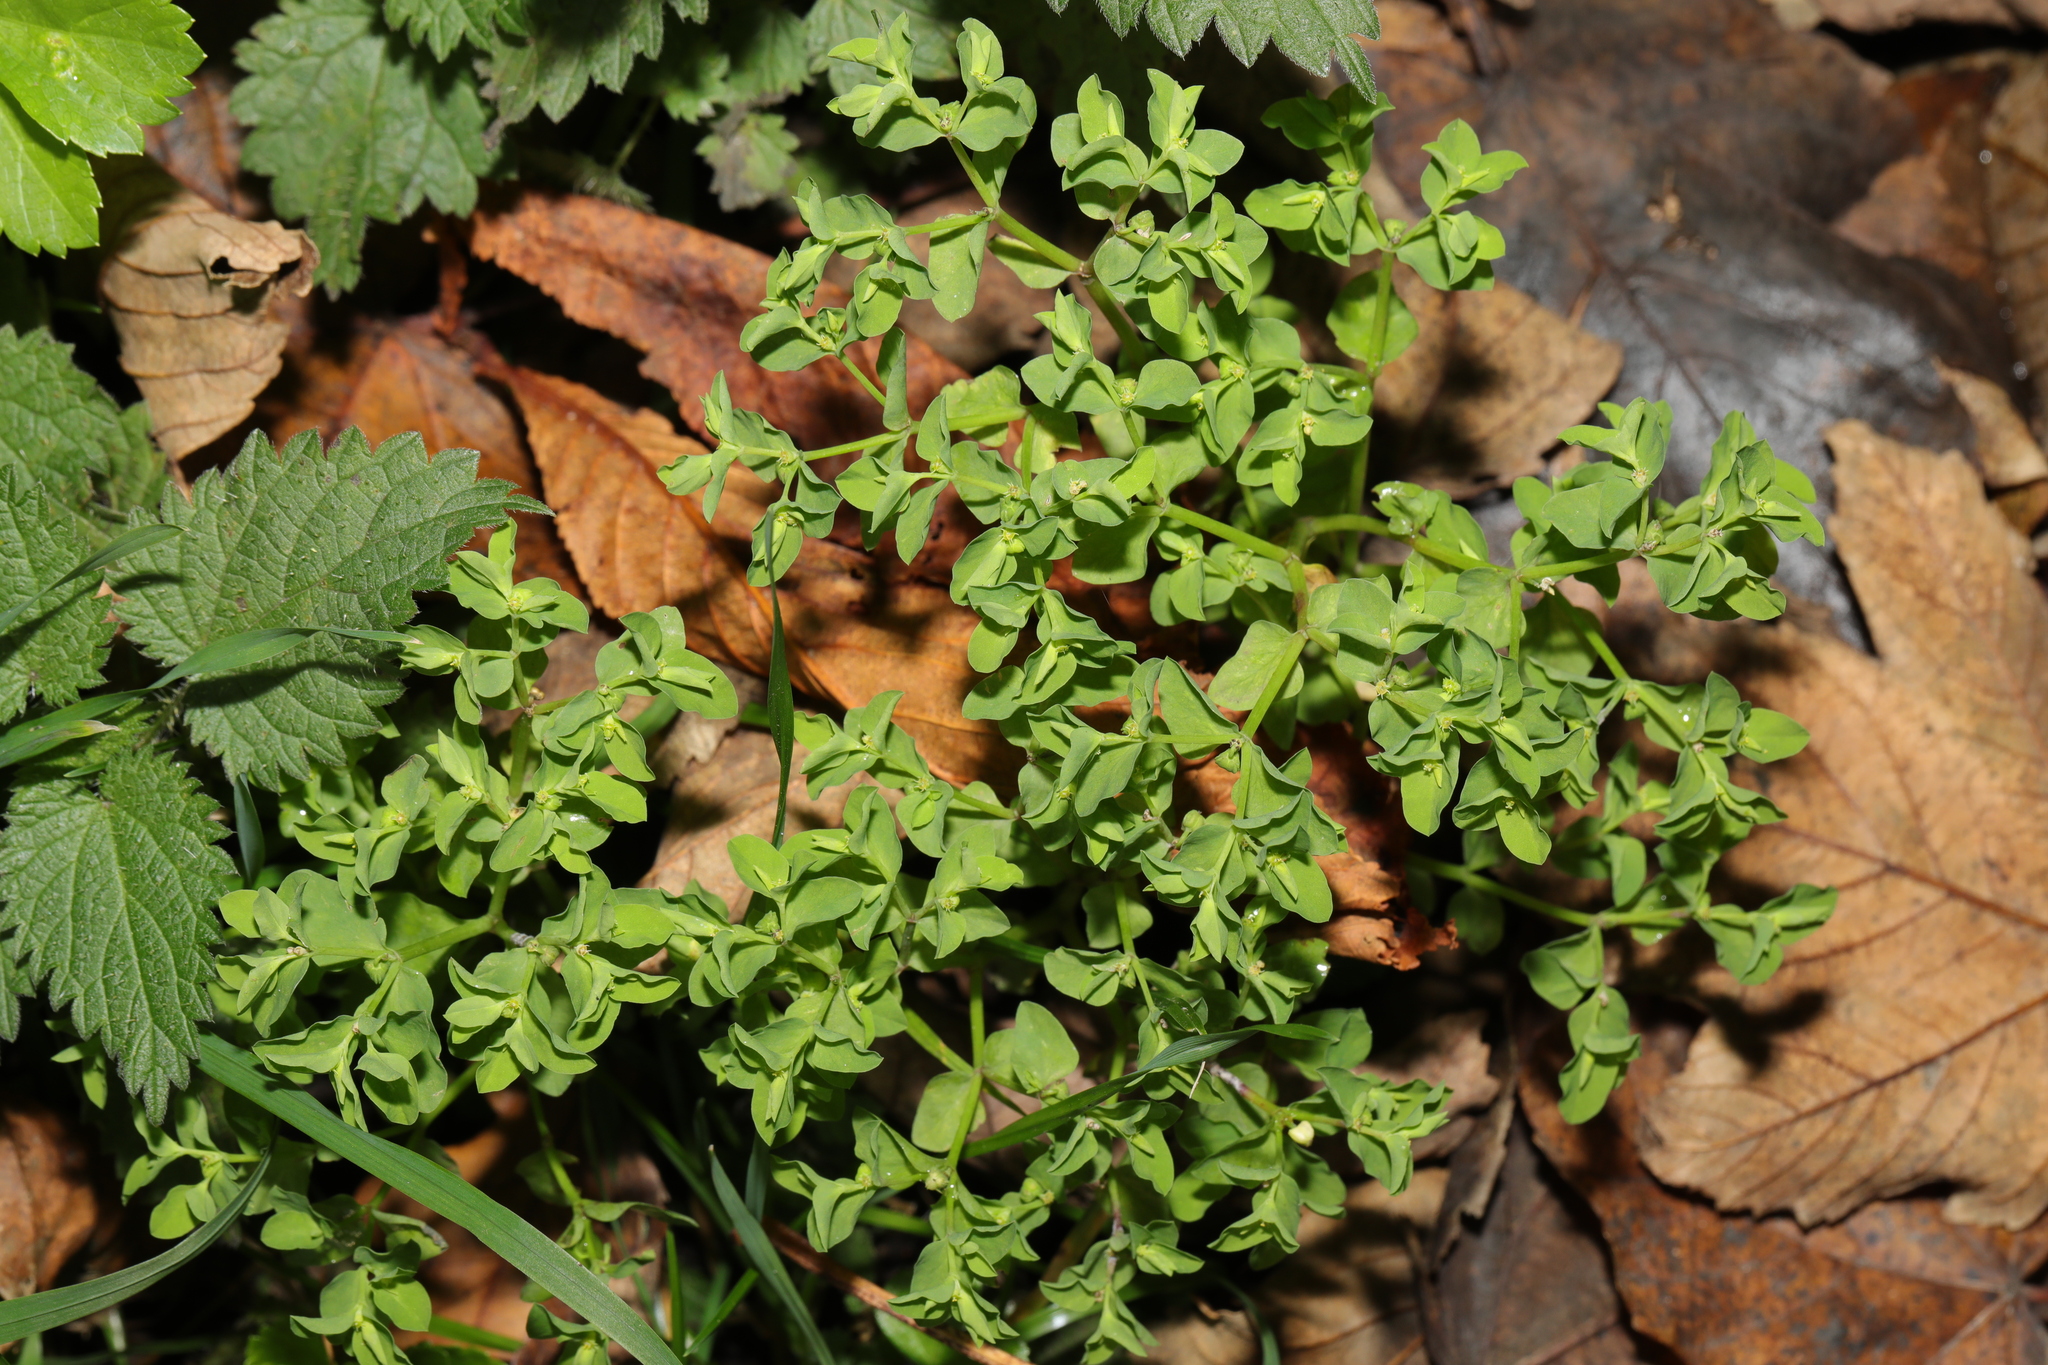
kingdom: Plantae
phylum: Tracheophyta
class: Magnoliopsida
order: Malpighiales
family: Euphorbiaceae
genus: Euphorbia
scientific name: Euphorbia peplus
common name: Petty spurge
